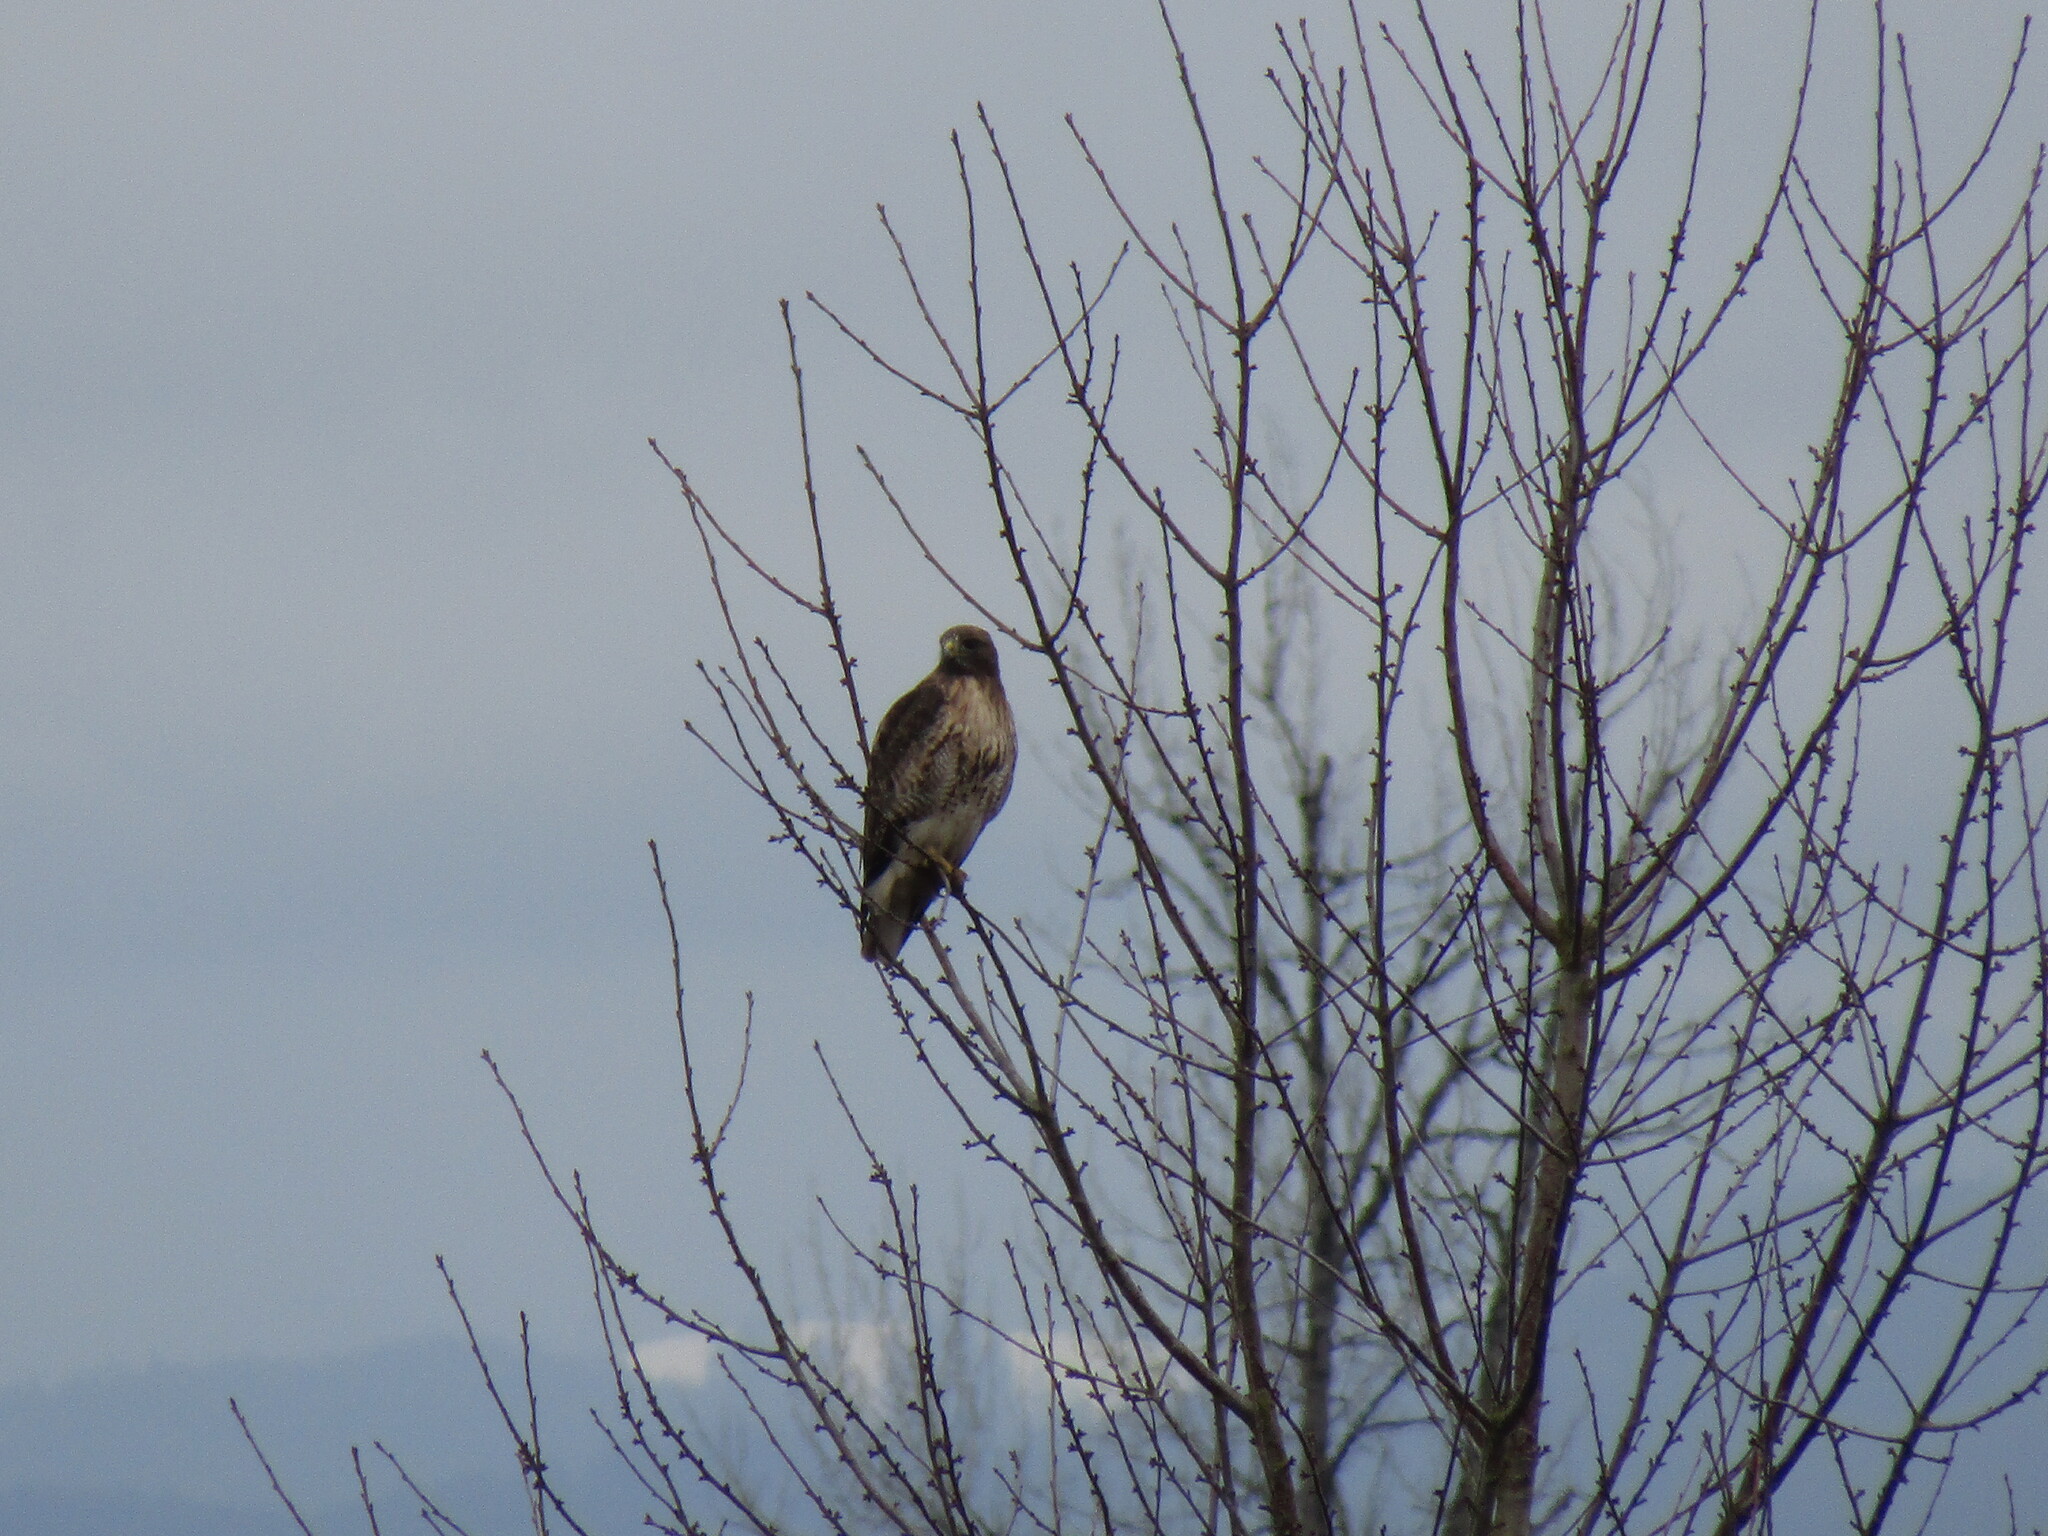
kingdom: Animalia
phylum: Chordata
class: Aves
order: Accipitriformes
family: Accipitridae
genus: Buteo
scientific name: Buteo jamaicensis
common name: Red-tailed hawk
